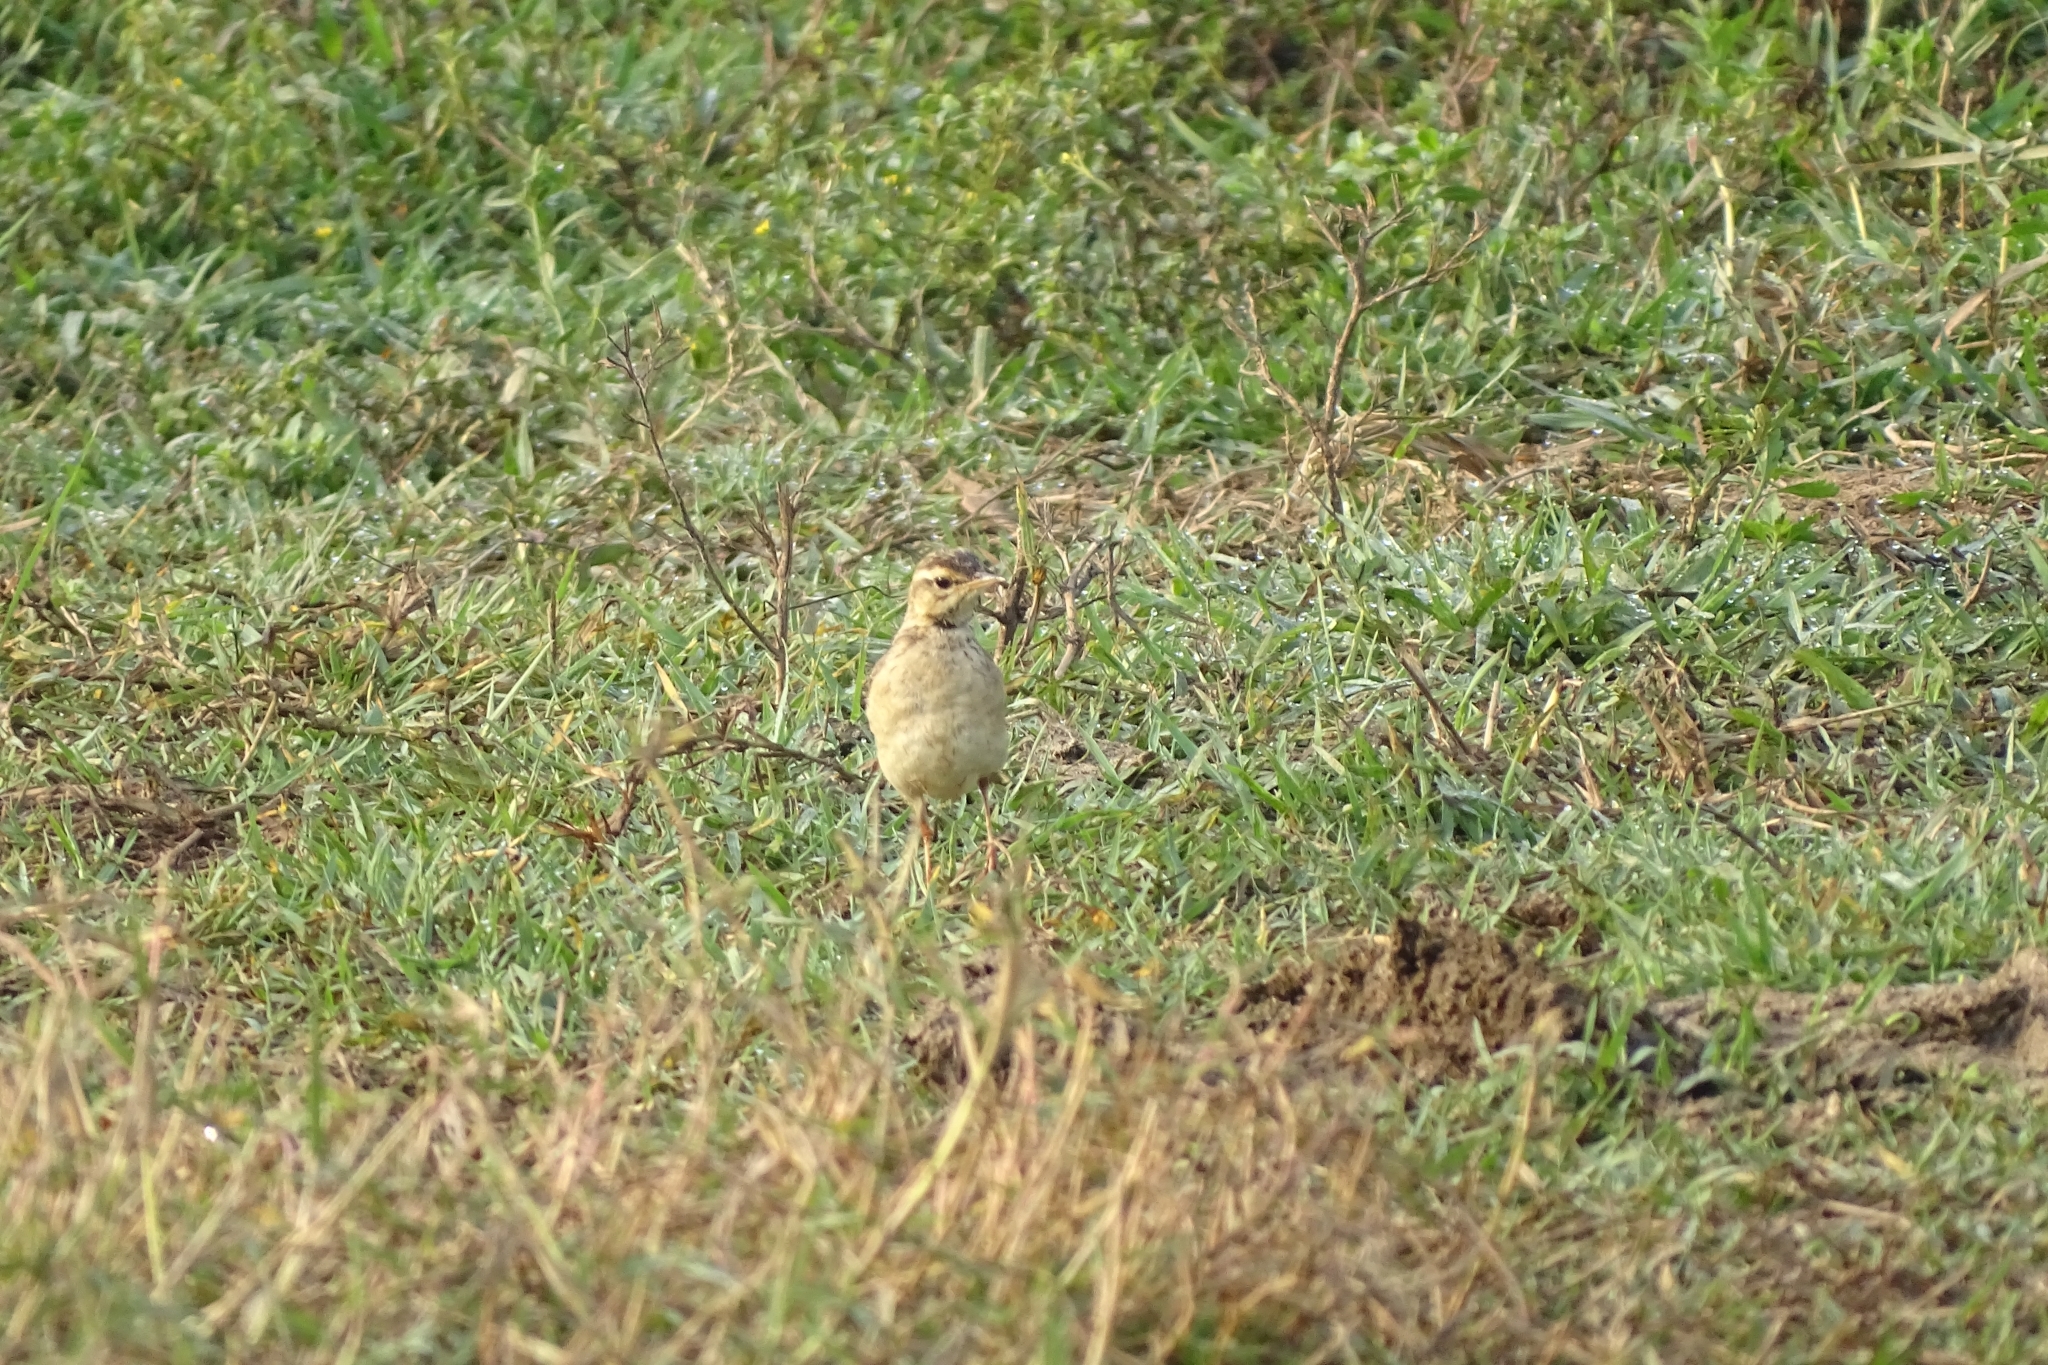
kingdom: Animalia
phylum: Chordata
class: Aves
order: Passeriformes
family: Motacillidae
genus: Anthus
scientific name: Anthus rufulus
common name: Paddyfield pipit
